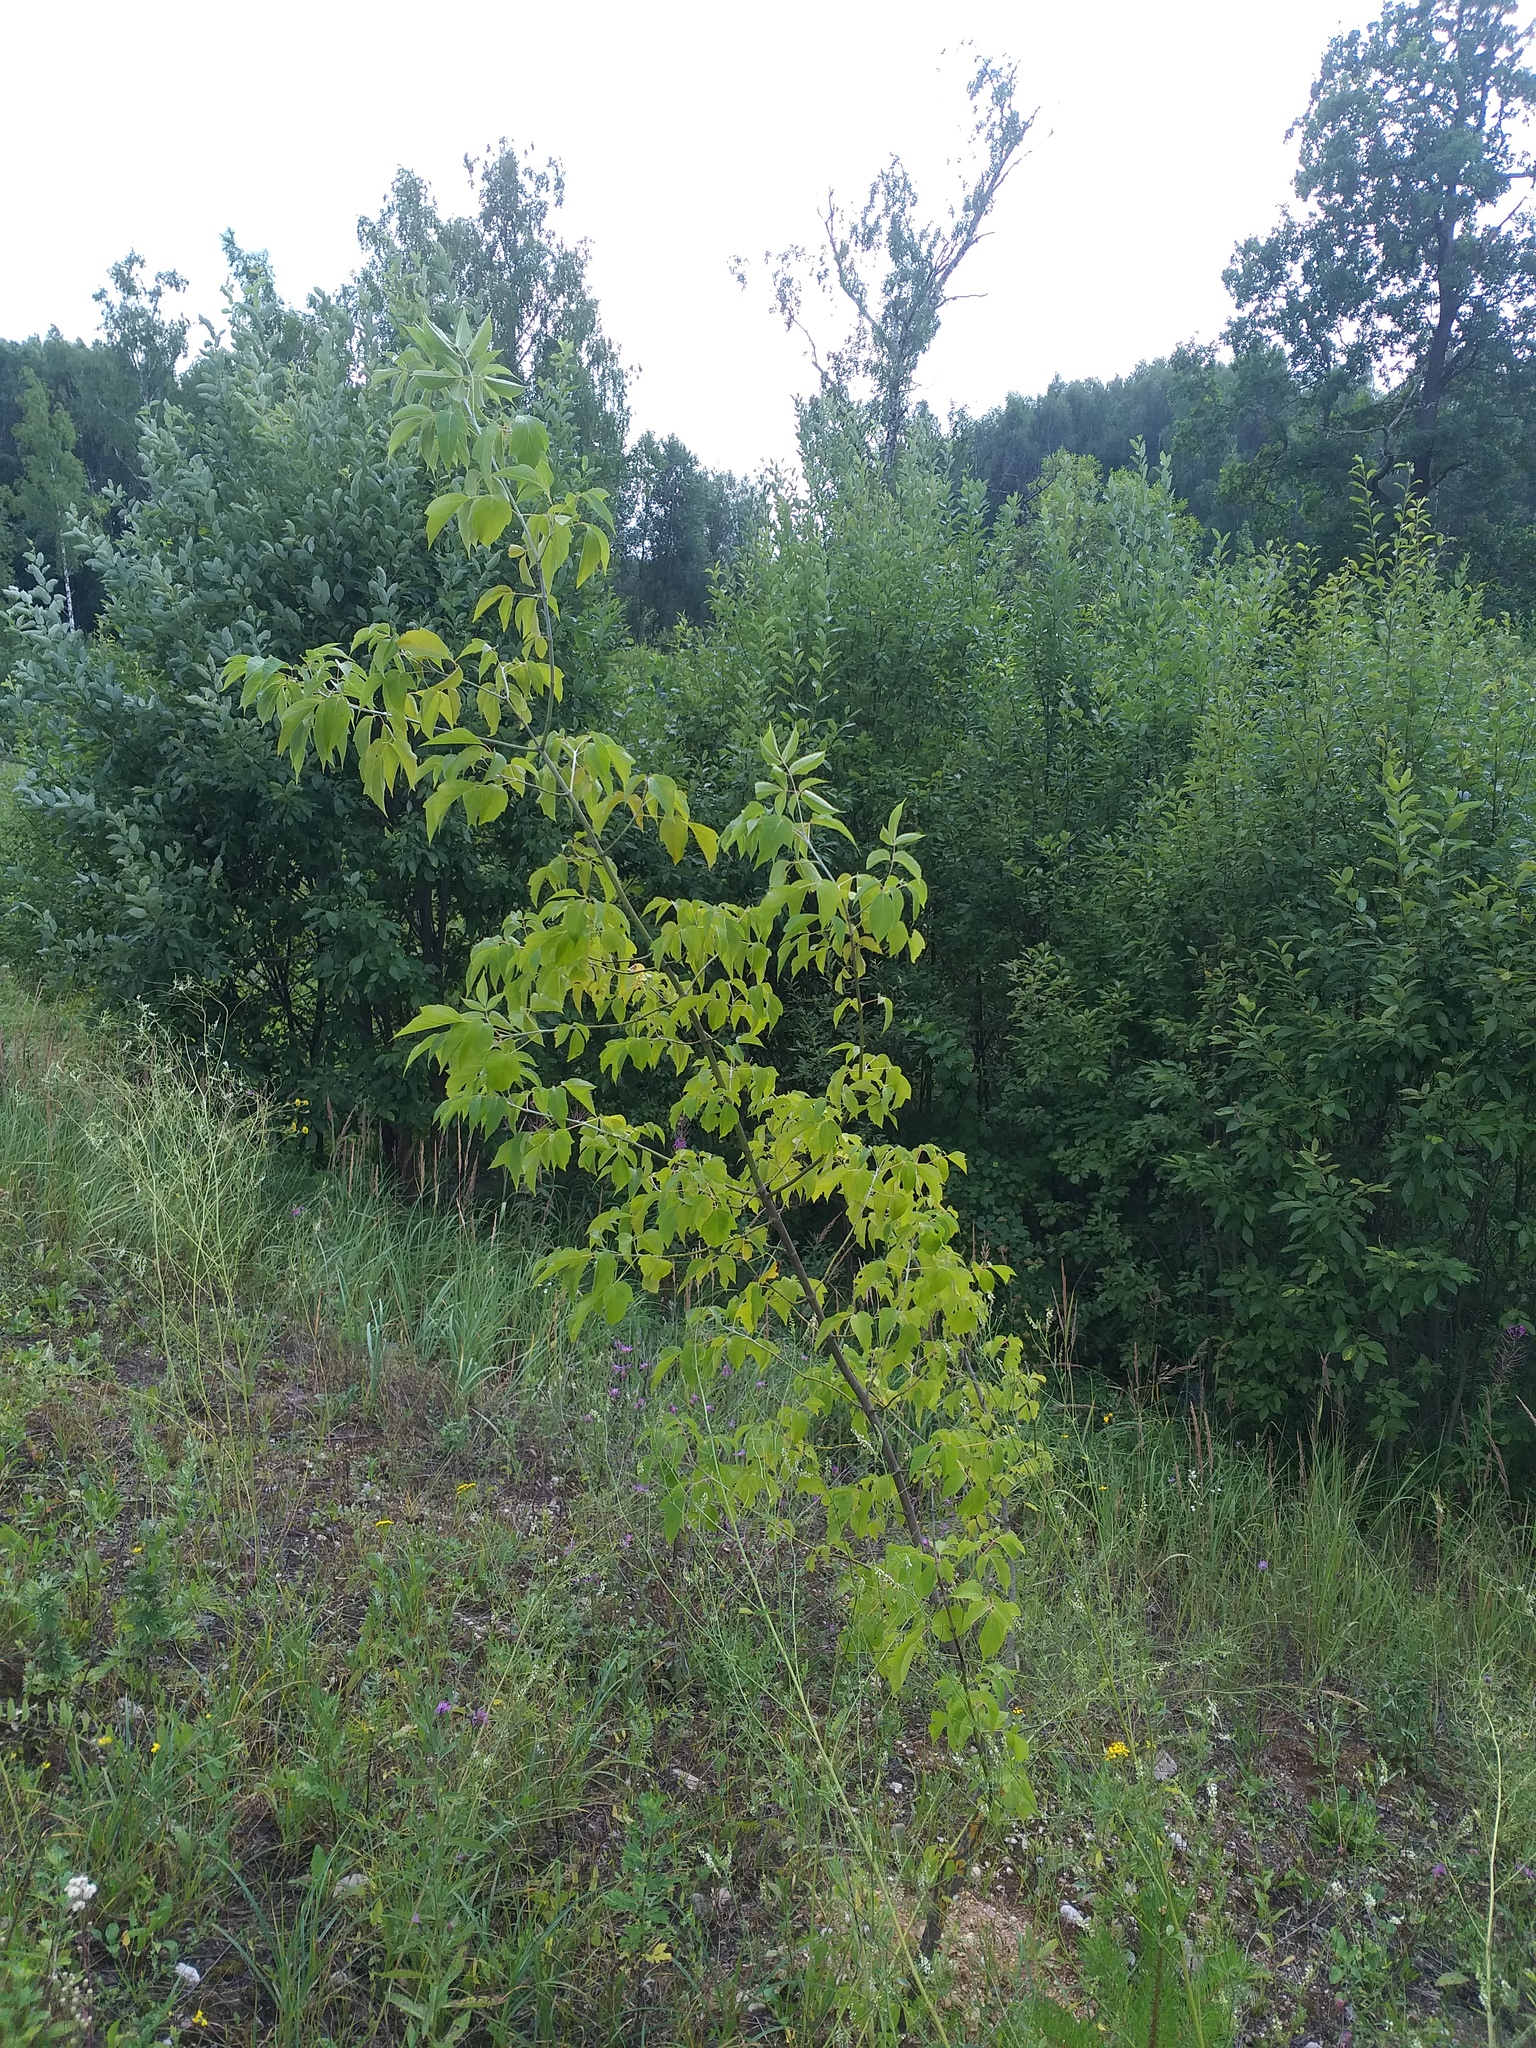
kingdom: Plantae
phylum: Tracheophyta
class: Magnoliopsida
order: Sapindales
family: Sapindaceae
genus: Acer
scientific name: Acer negundo
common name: Ashleaf maple
